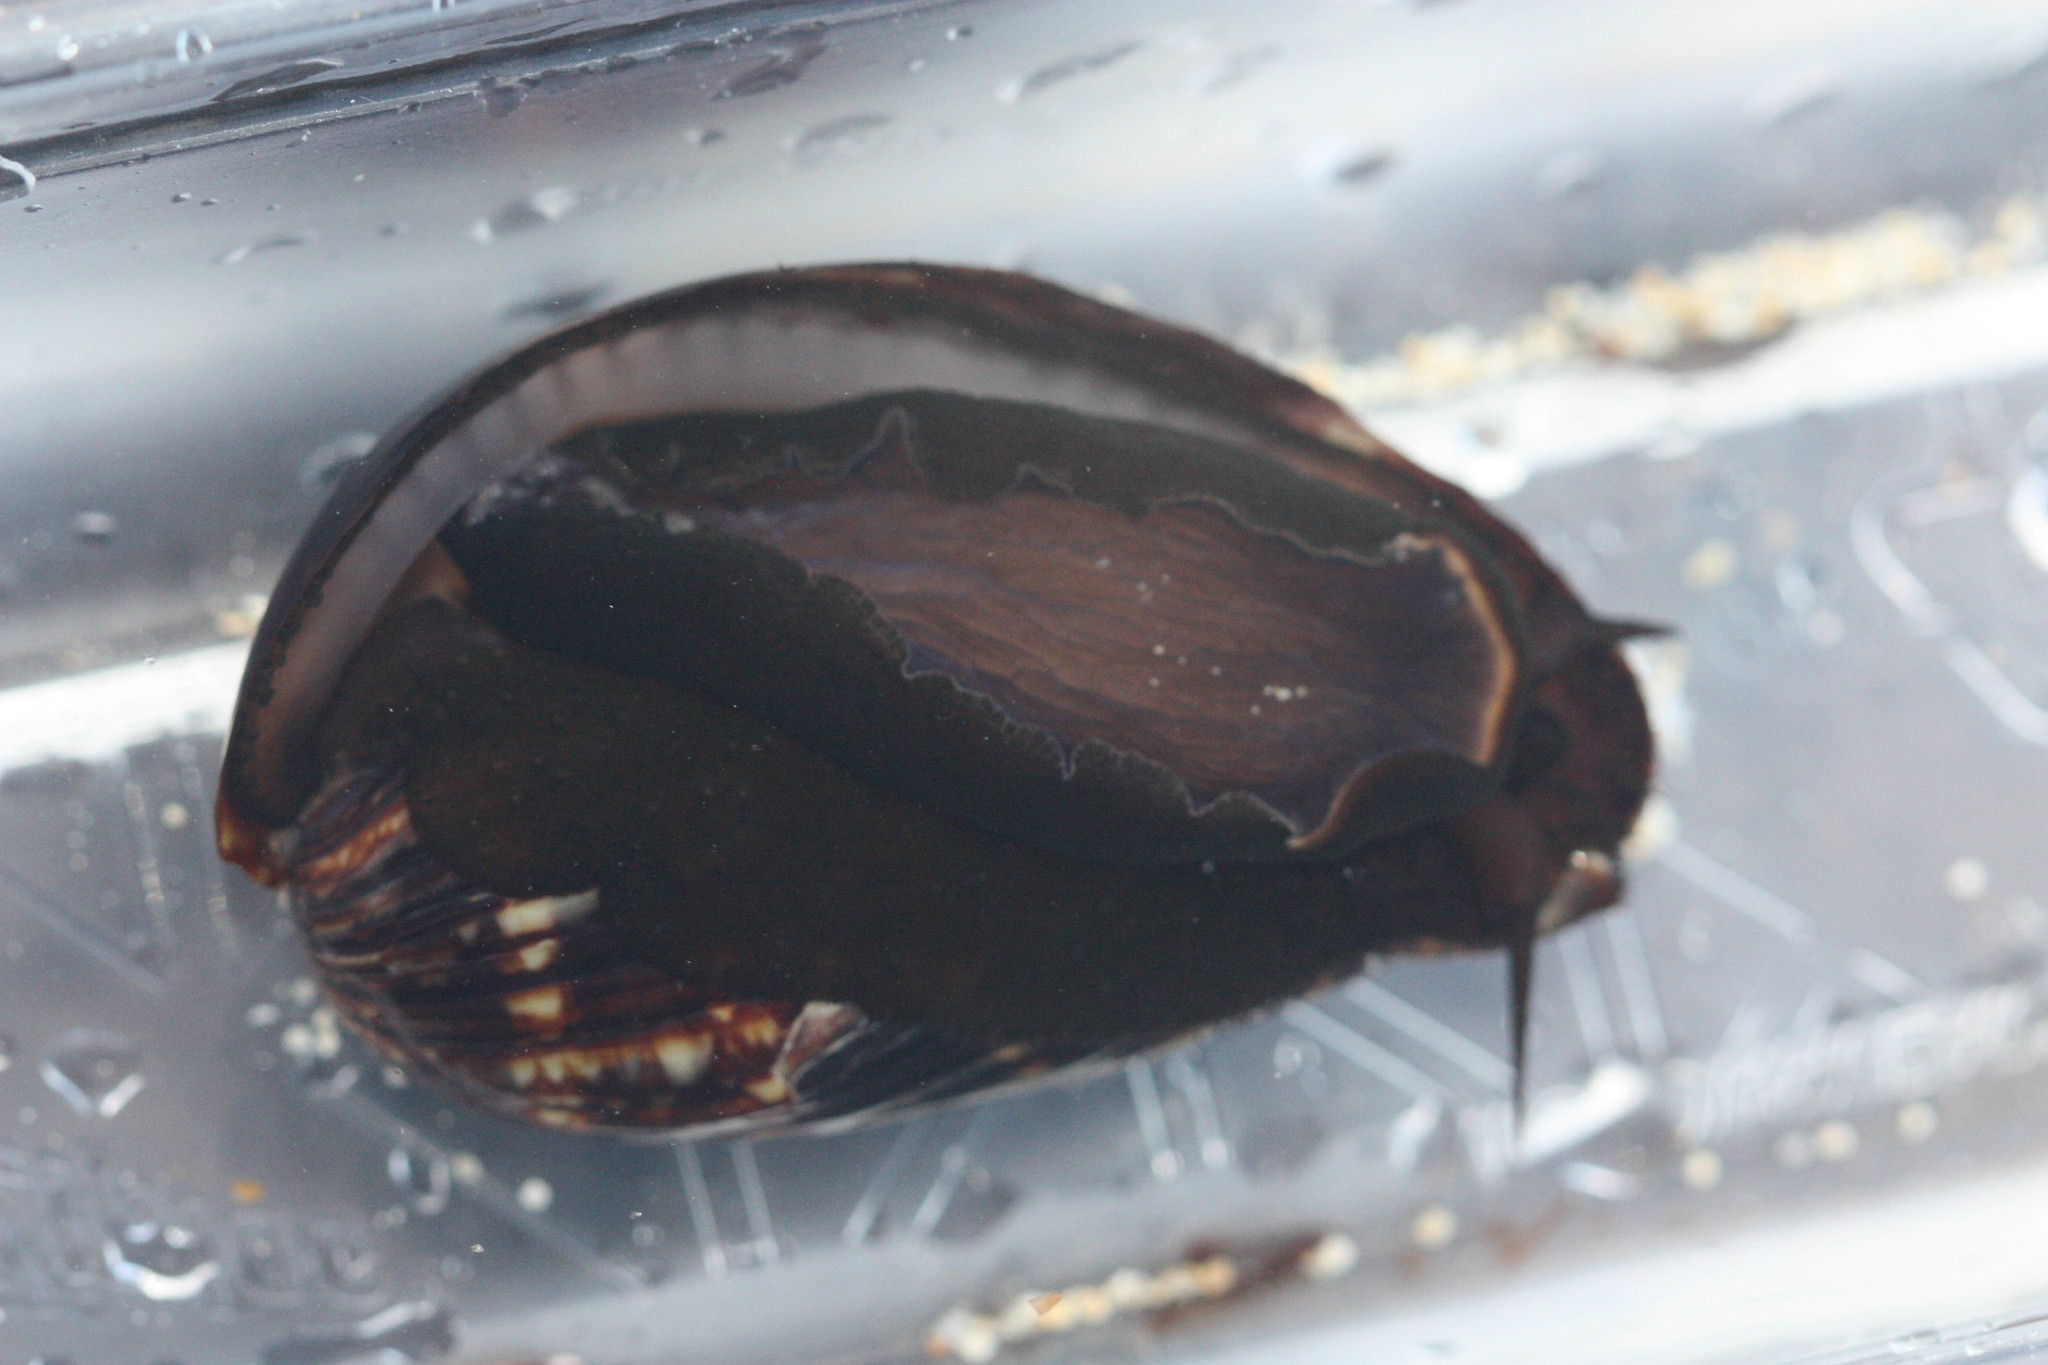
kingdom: Animalia
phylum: Mollusca
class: Gastropoda
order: Littorinimorpha
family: Cypraeidae
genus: Mauritia
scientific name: Mauritia mauritiana
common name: Hump-backed cowrie
